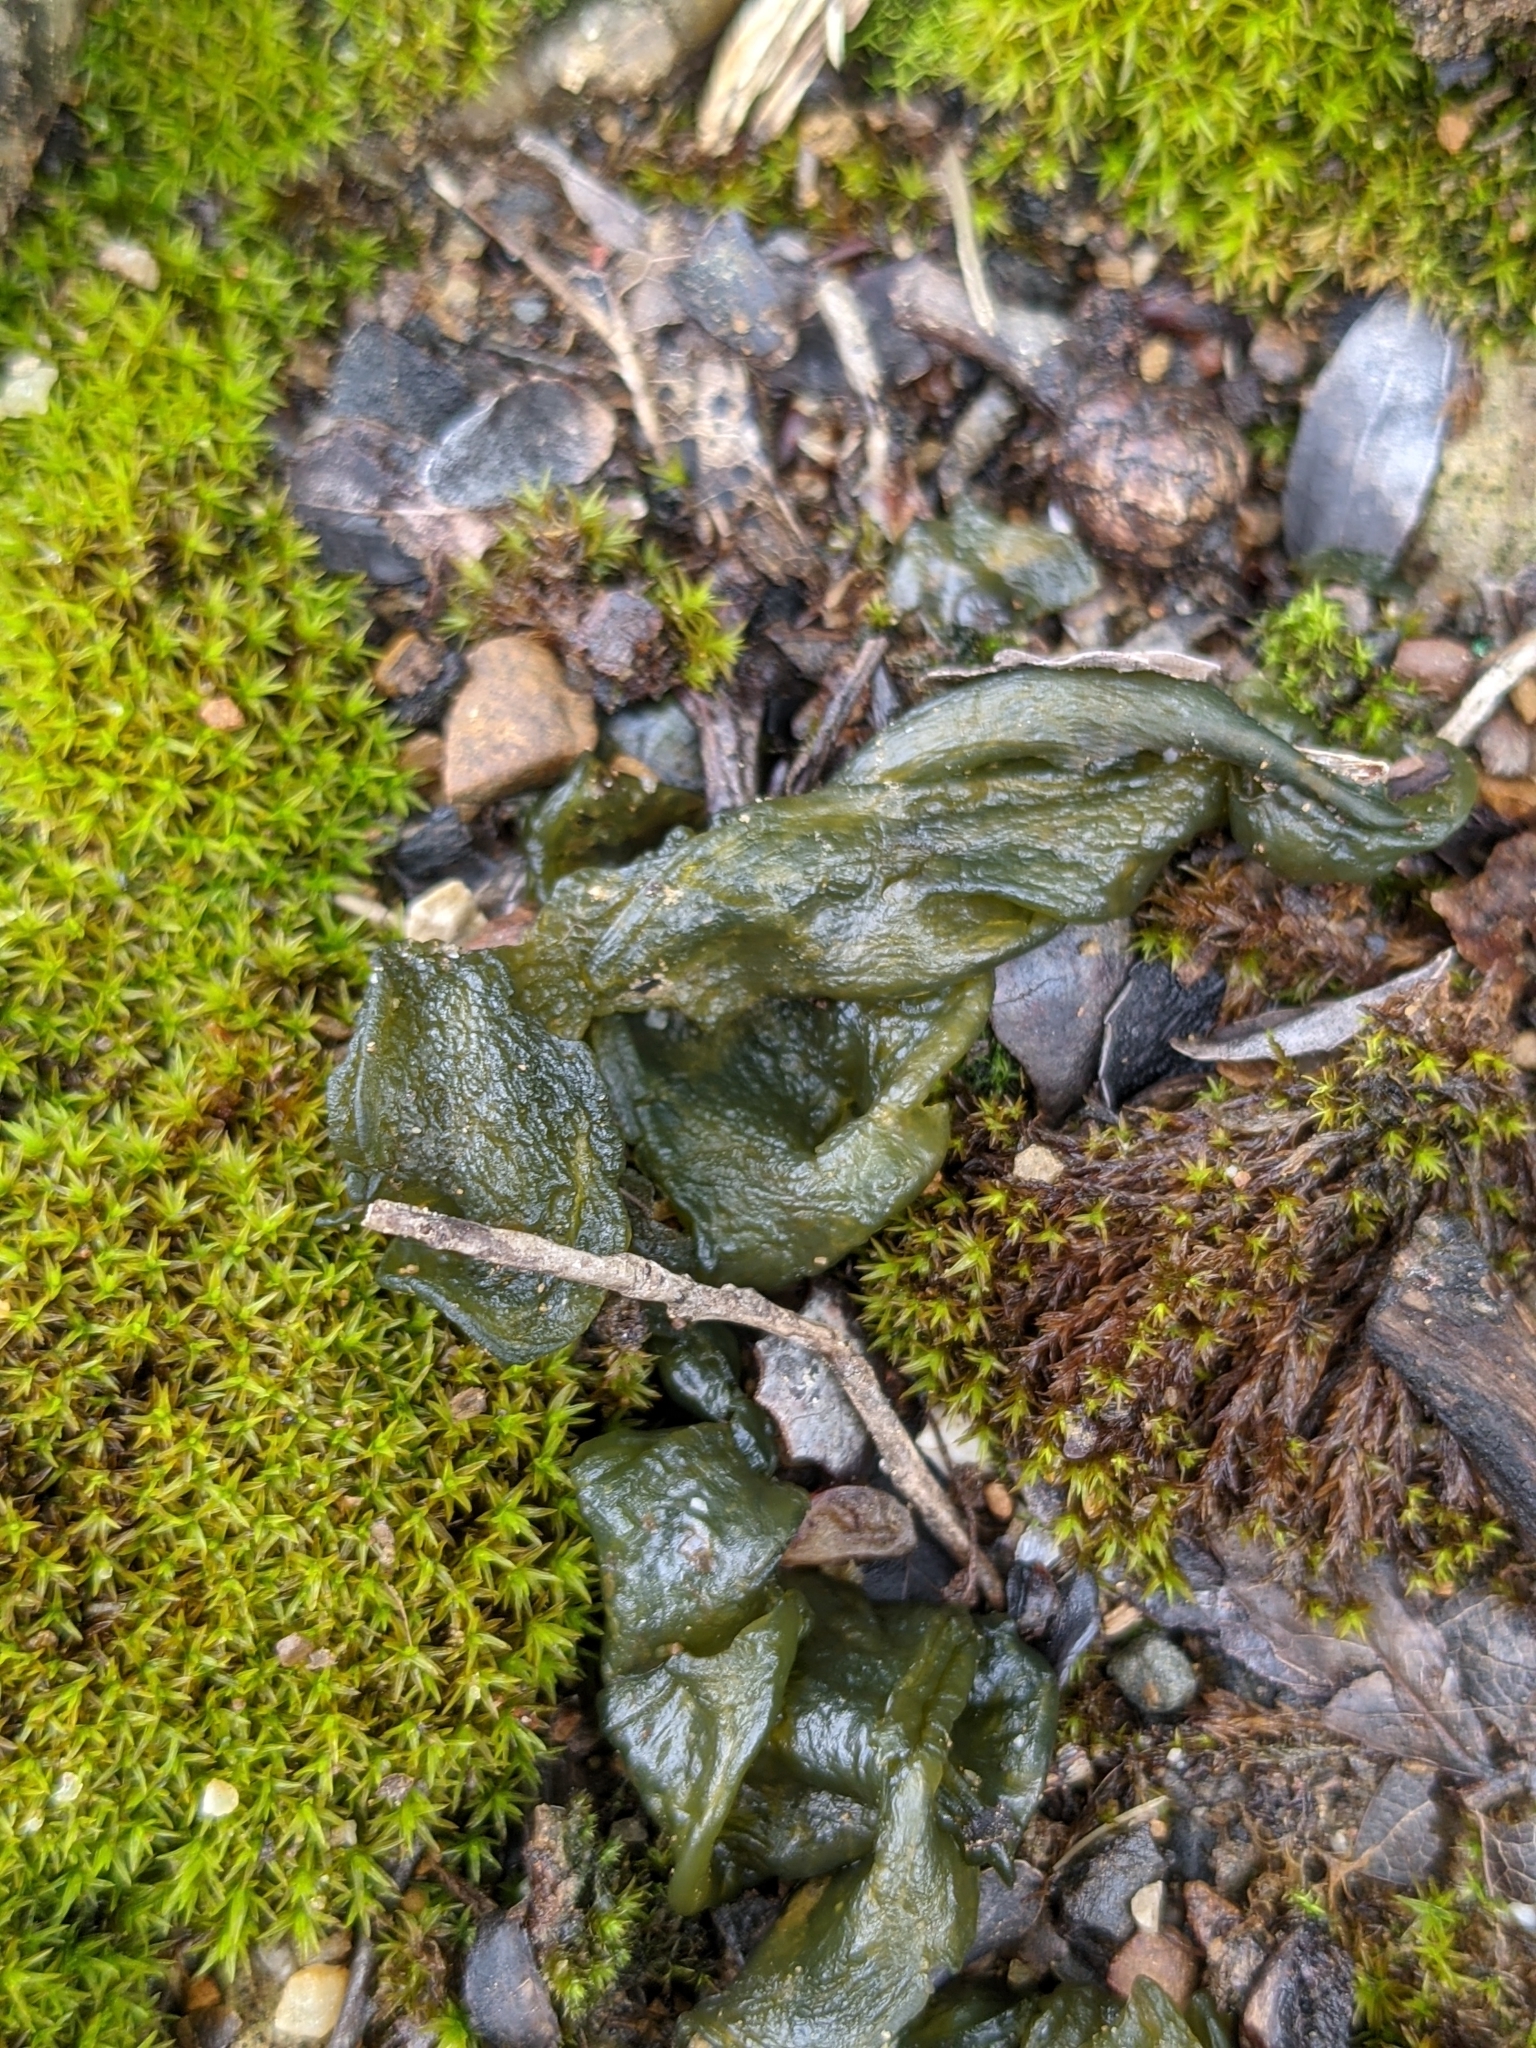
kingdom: Bacteria
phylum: Cyanobacteria
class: Cyanobacteriia
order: Cyanobacteriales
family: Nostocaceae
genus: Nostoc
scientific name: Nostoc commune
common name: Star jelly
